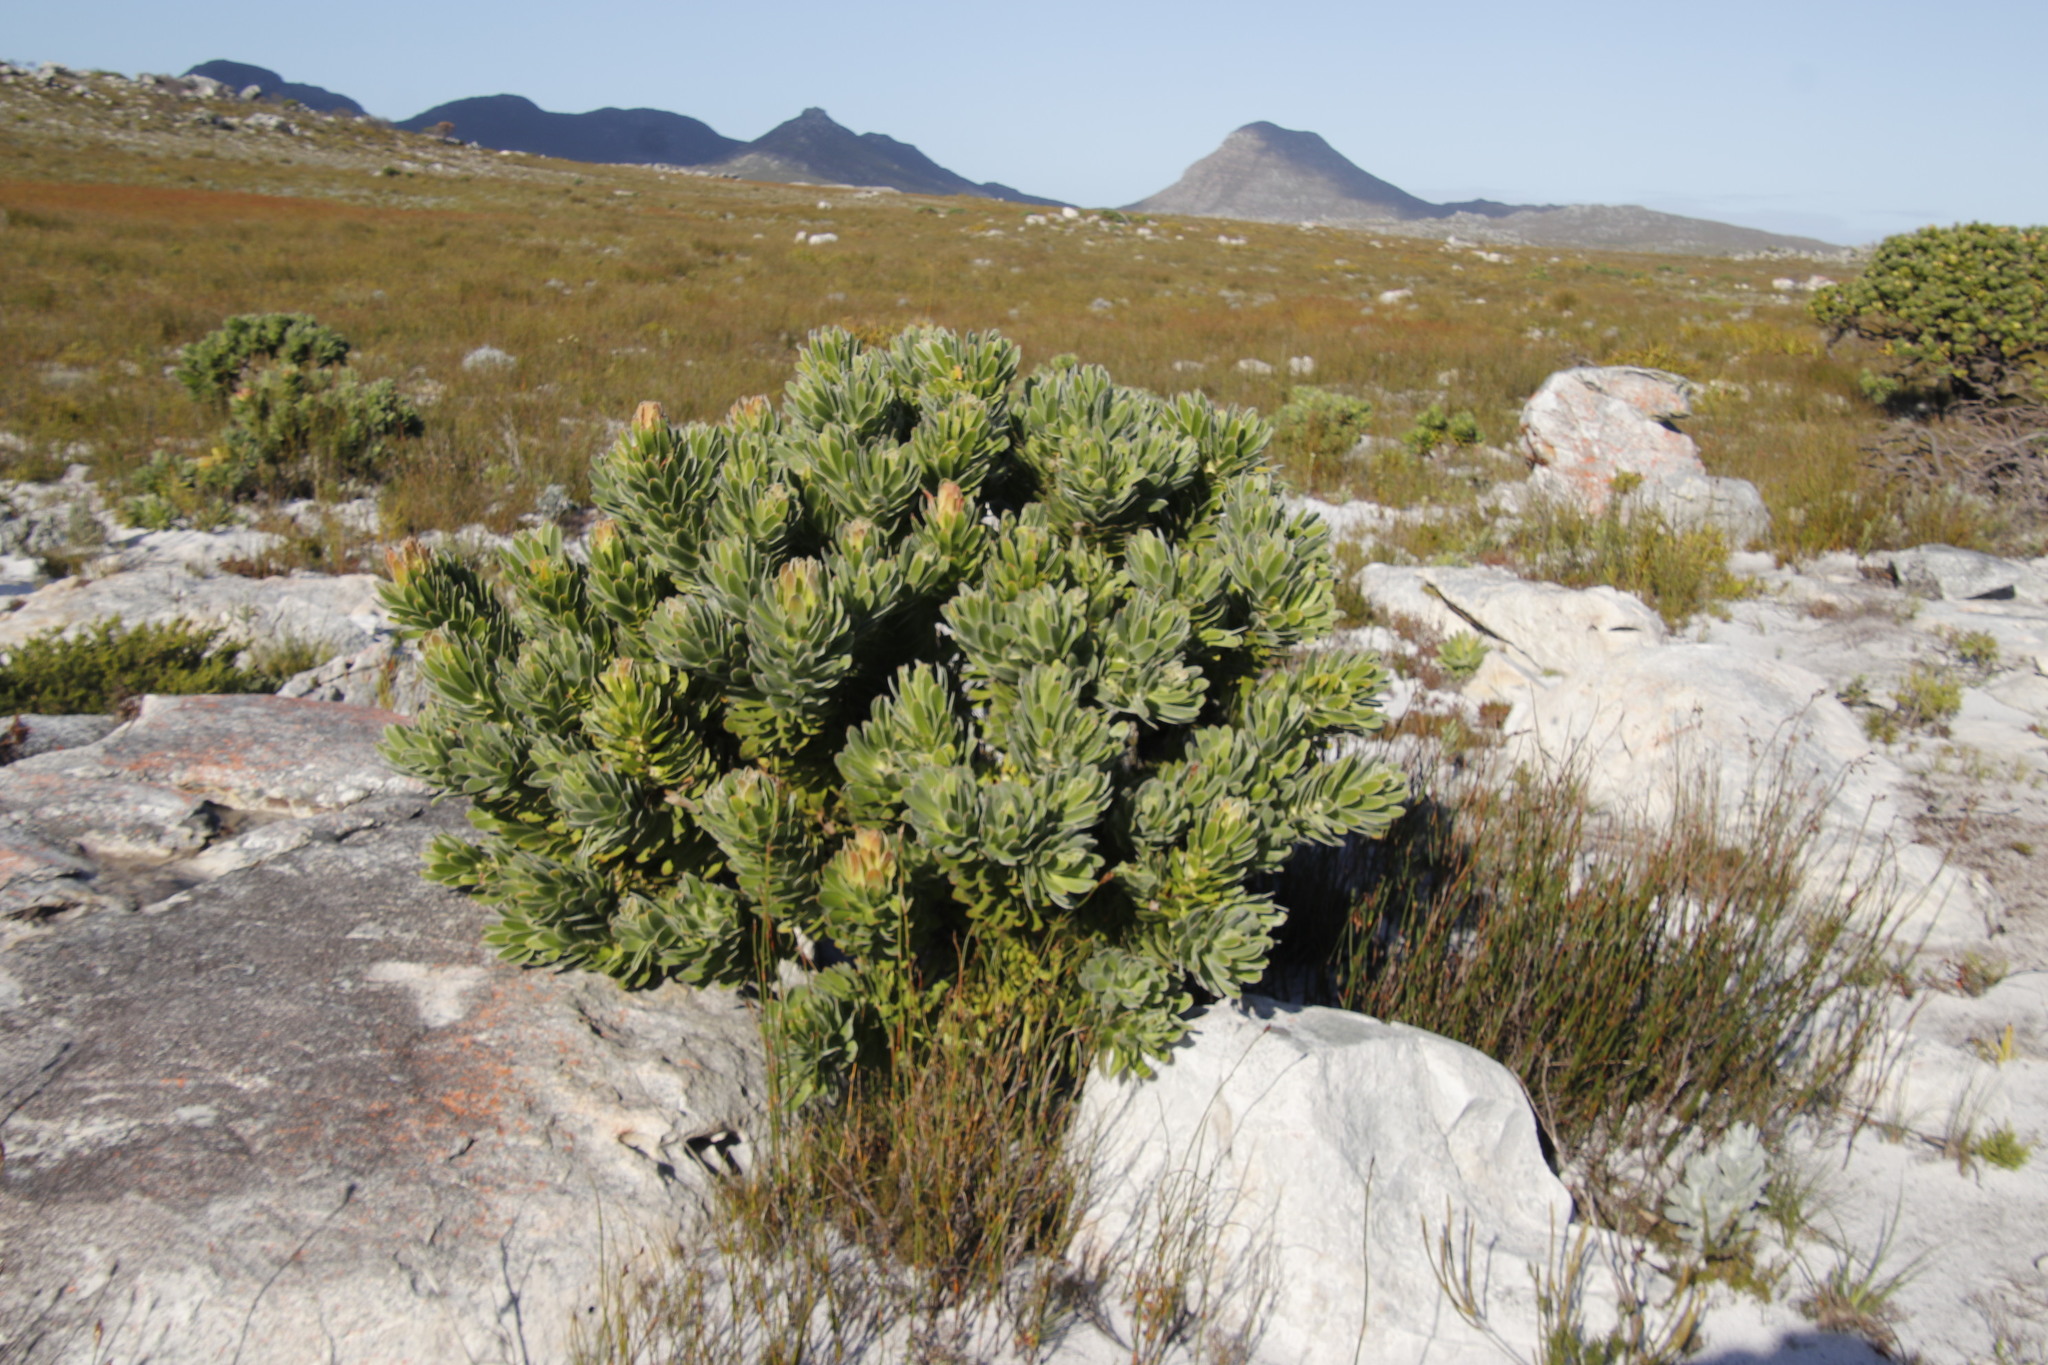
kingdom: Plantae
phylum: Tracheophyta
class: Magnoliopsida
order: Proteales
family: Proteaceae
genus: Mimetes
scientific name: Mimetes fimbriifolius
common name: Fringed bottlebrush
